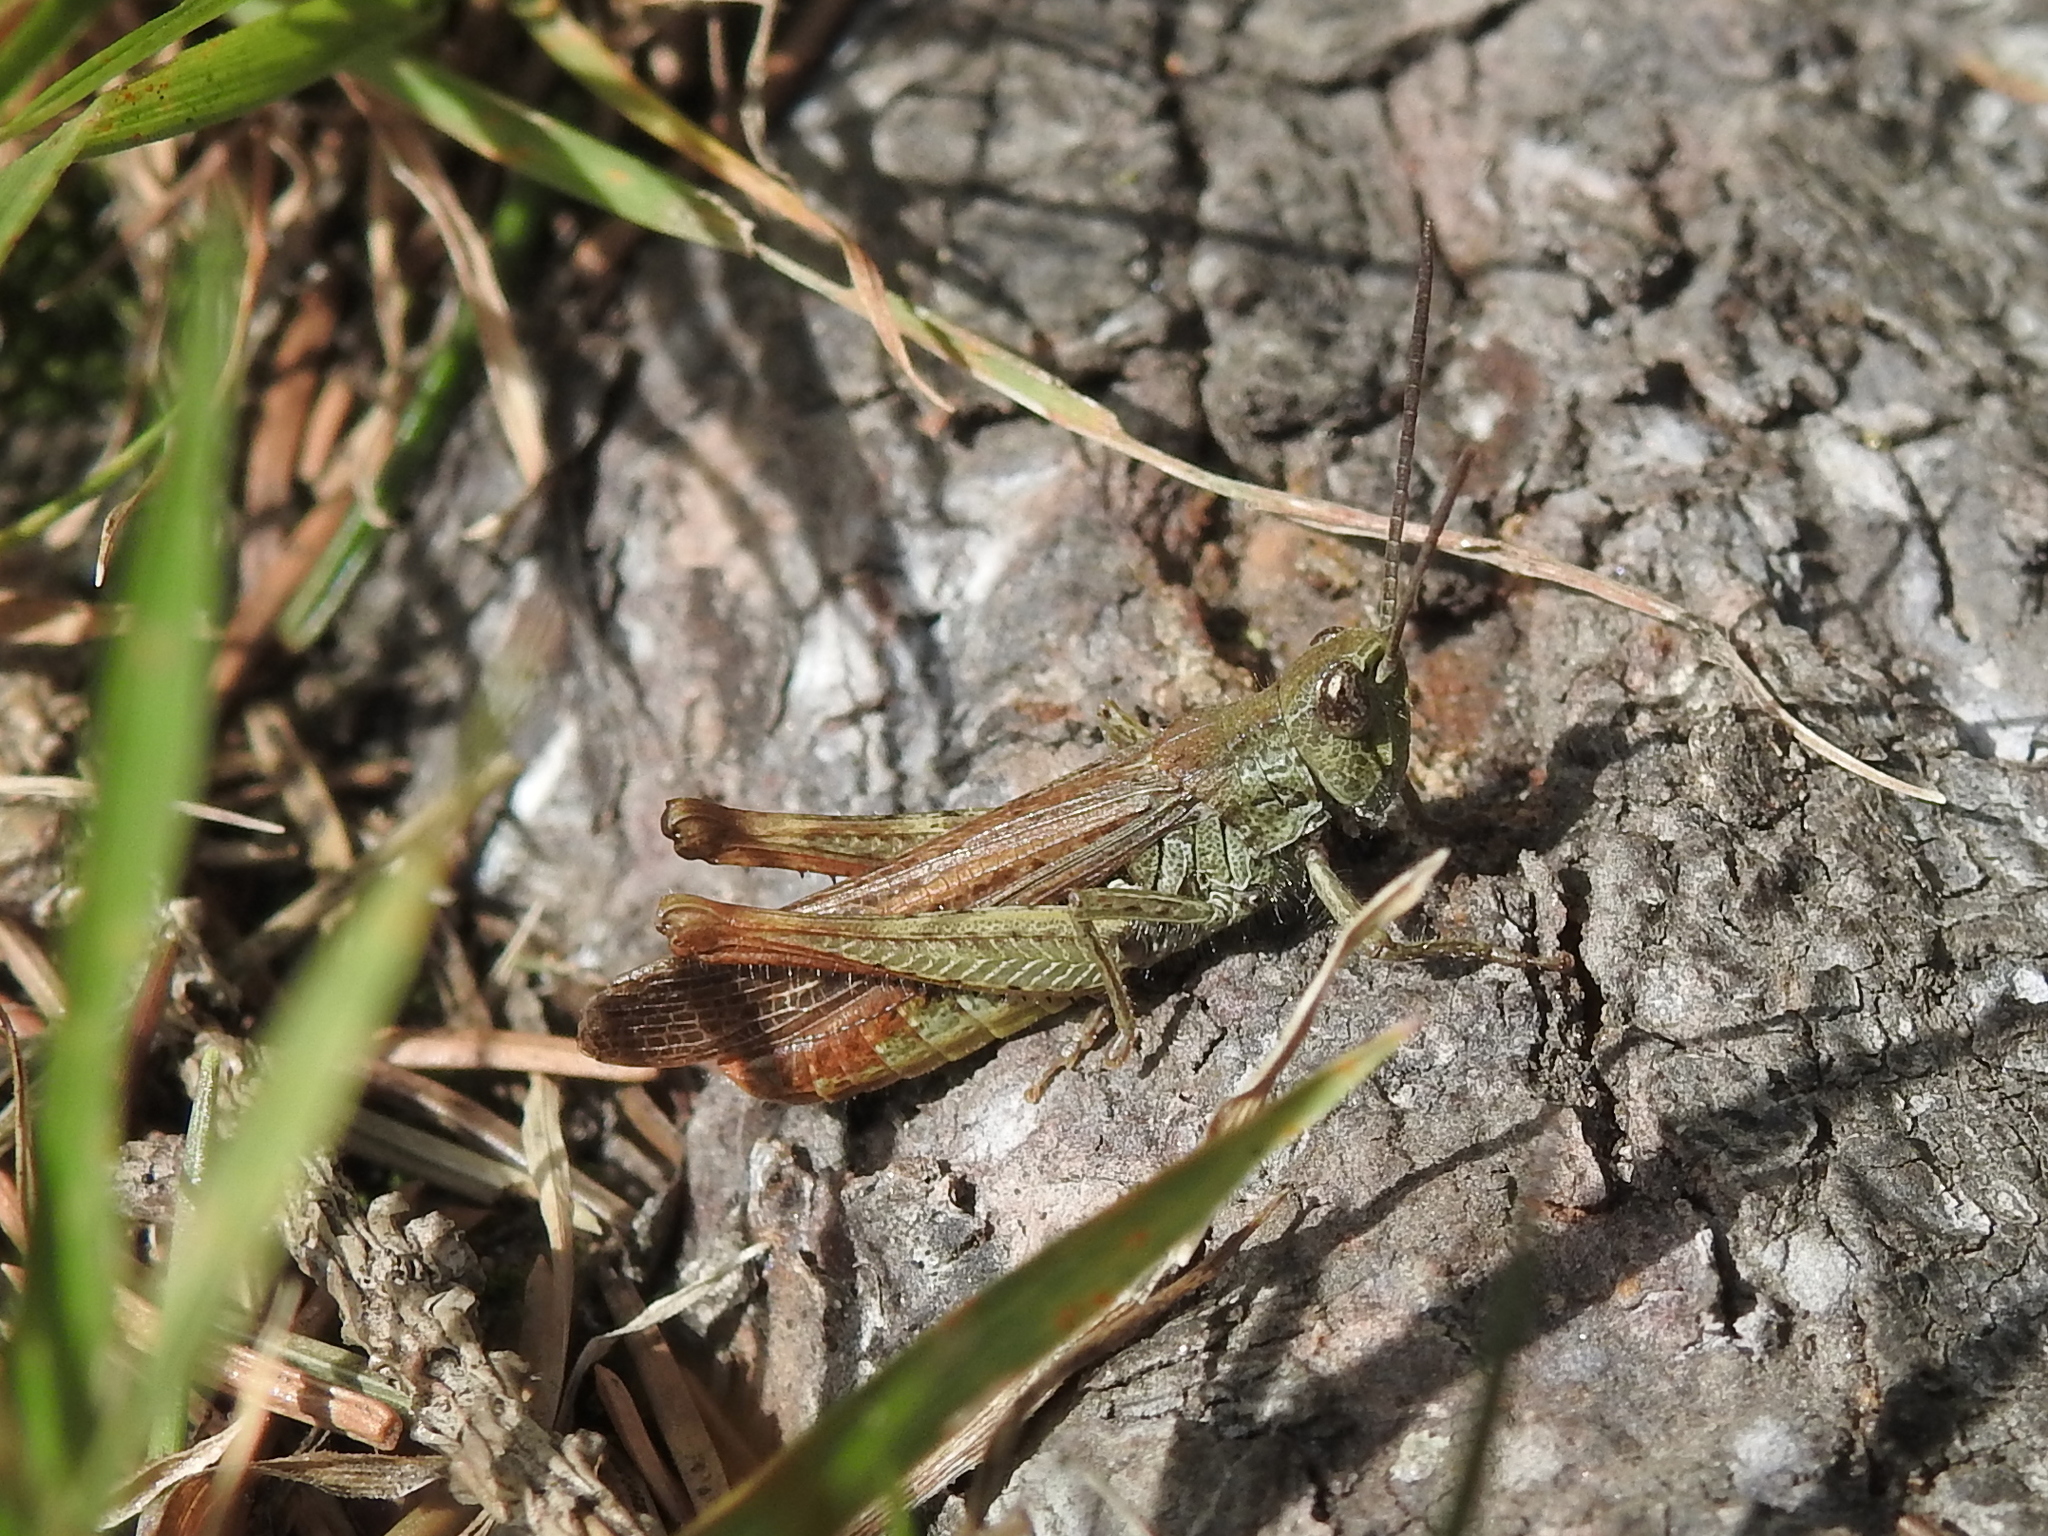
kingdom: Animalia
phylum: Arthropoda
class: Insecta
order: Orthoptera
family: Acrididae
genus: Chorthippus
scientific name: Chorthippus brunneus
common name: Field grasshopper
